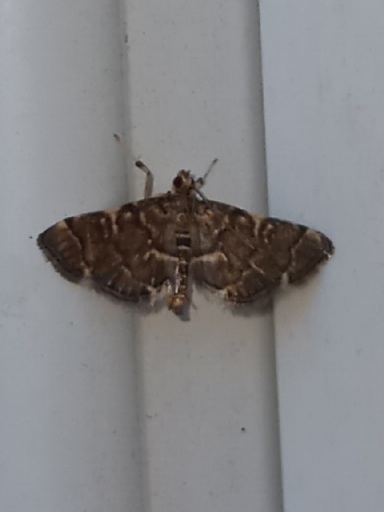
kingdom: Animalia
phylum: Arthropoda
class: Insecta
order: Lepidoptera
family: Crambidae
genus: Anageshna
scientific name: Anageshna primordialis
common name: Yellow-spotted webworm moth
